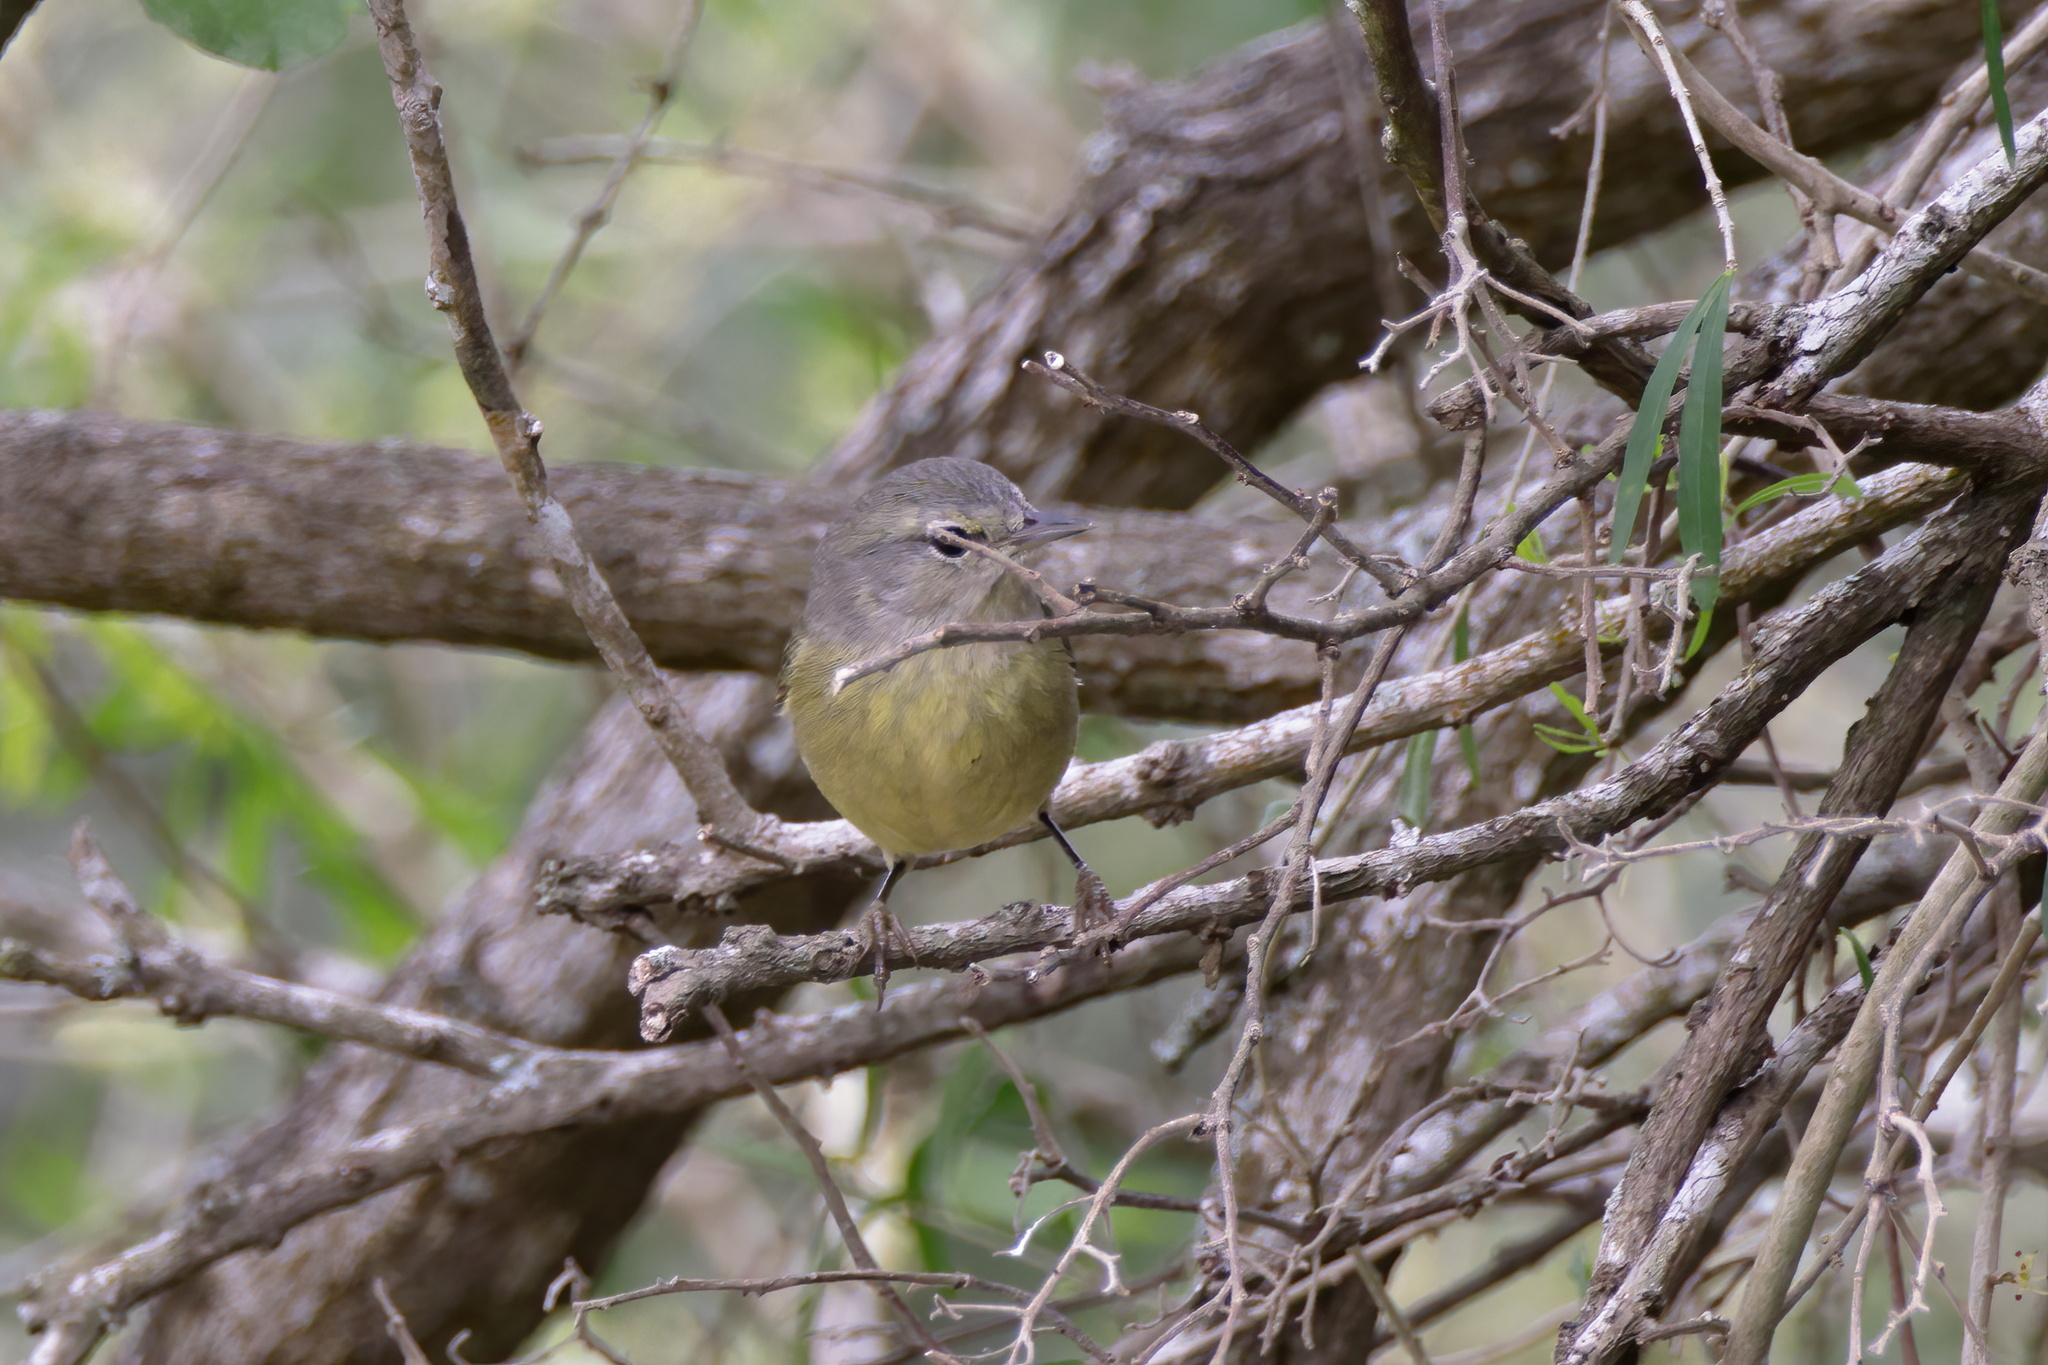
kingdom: Animalia
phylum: Chordata
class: Aves
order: Passeriformes
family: Parulidae
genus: Leiothlypis
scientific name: Leiothlypis celata
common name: Orange-crowned warbler
